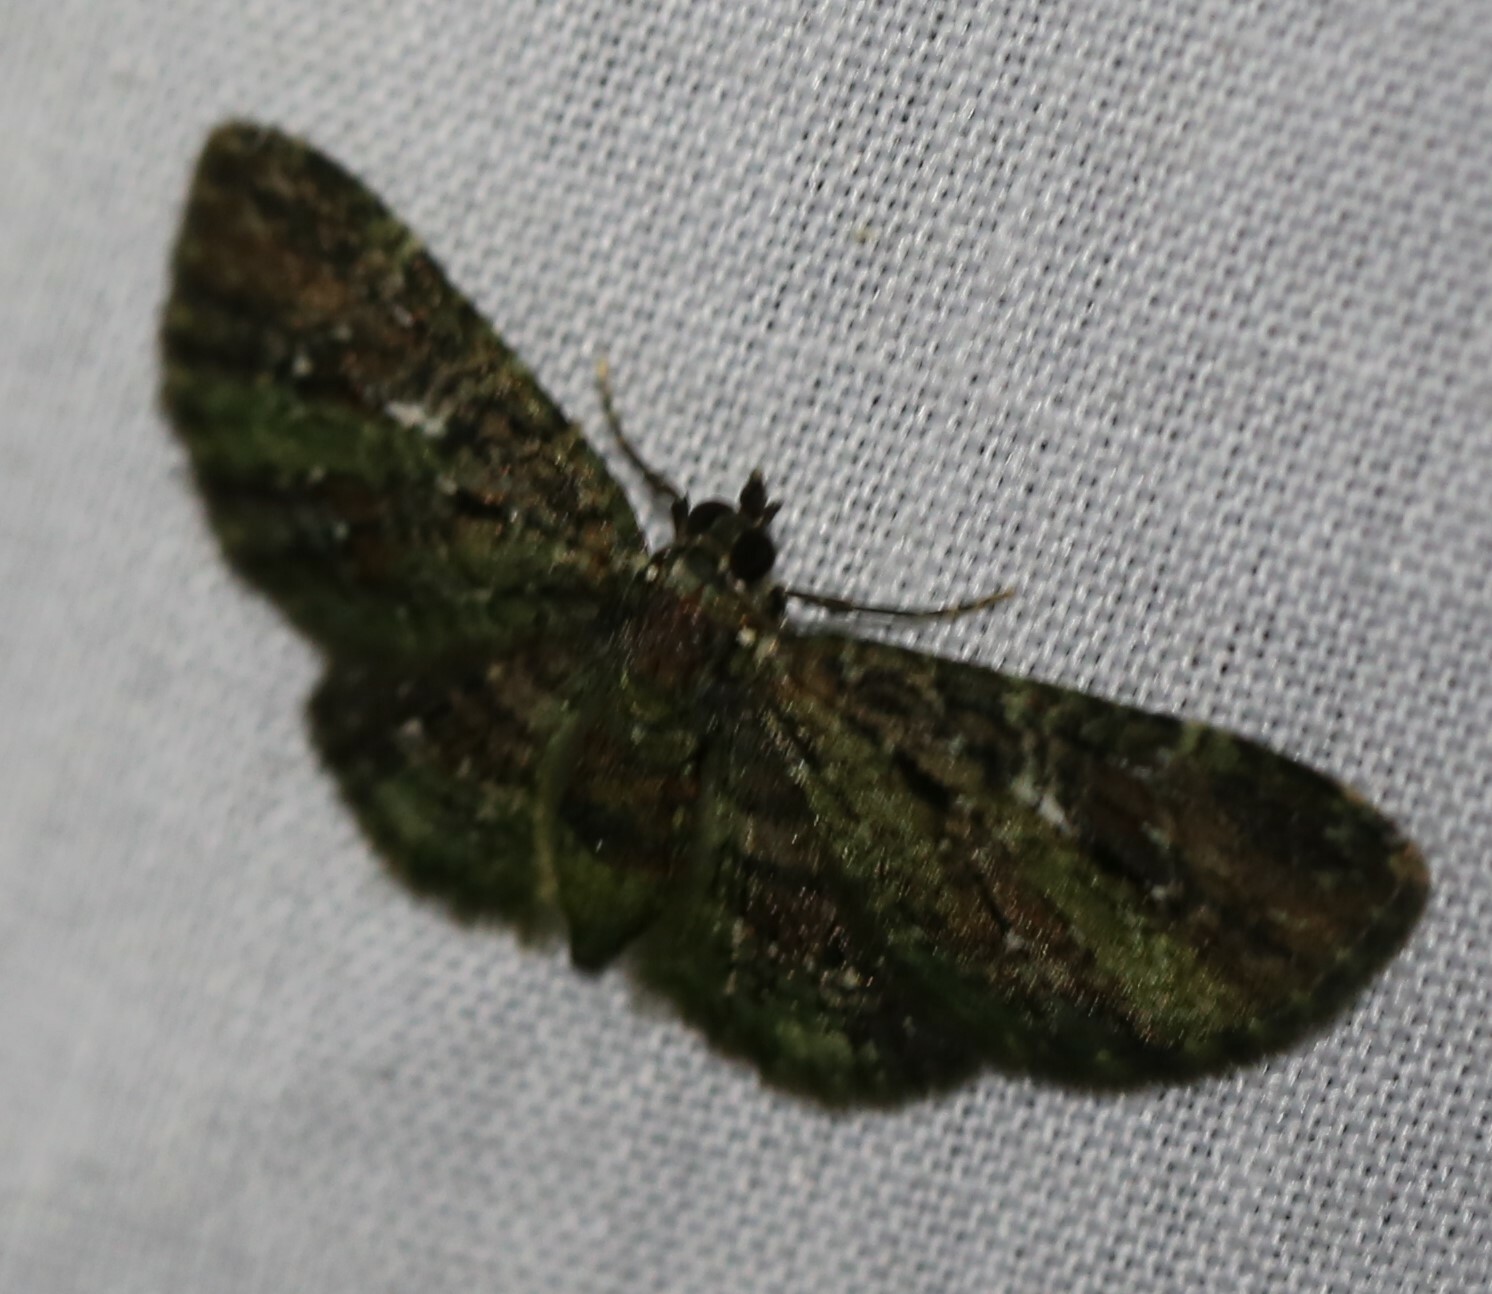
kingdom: Animalia
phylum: Arthropoda
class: Insecta
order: Lepidoptera
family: Geometridae
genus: Symmimetis
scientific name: Symmimetis muscosa
